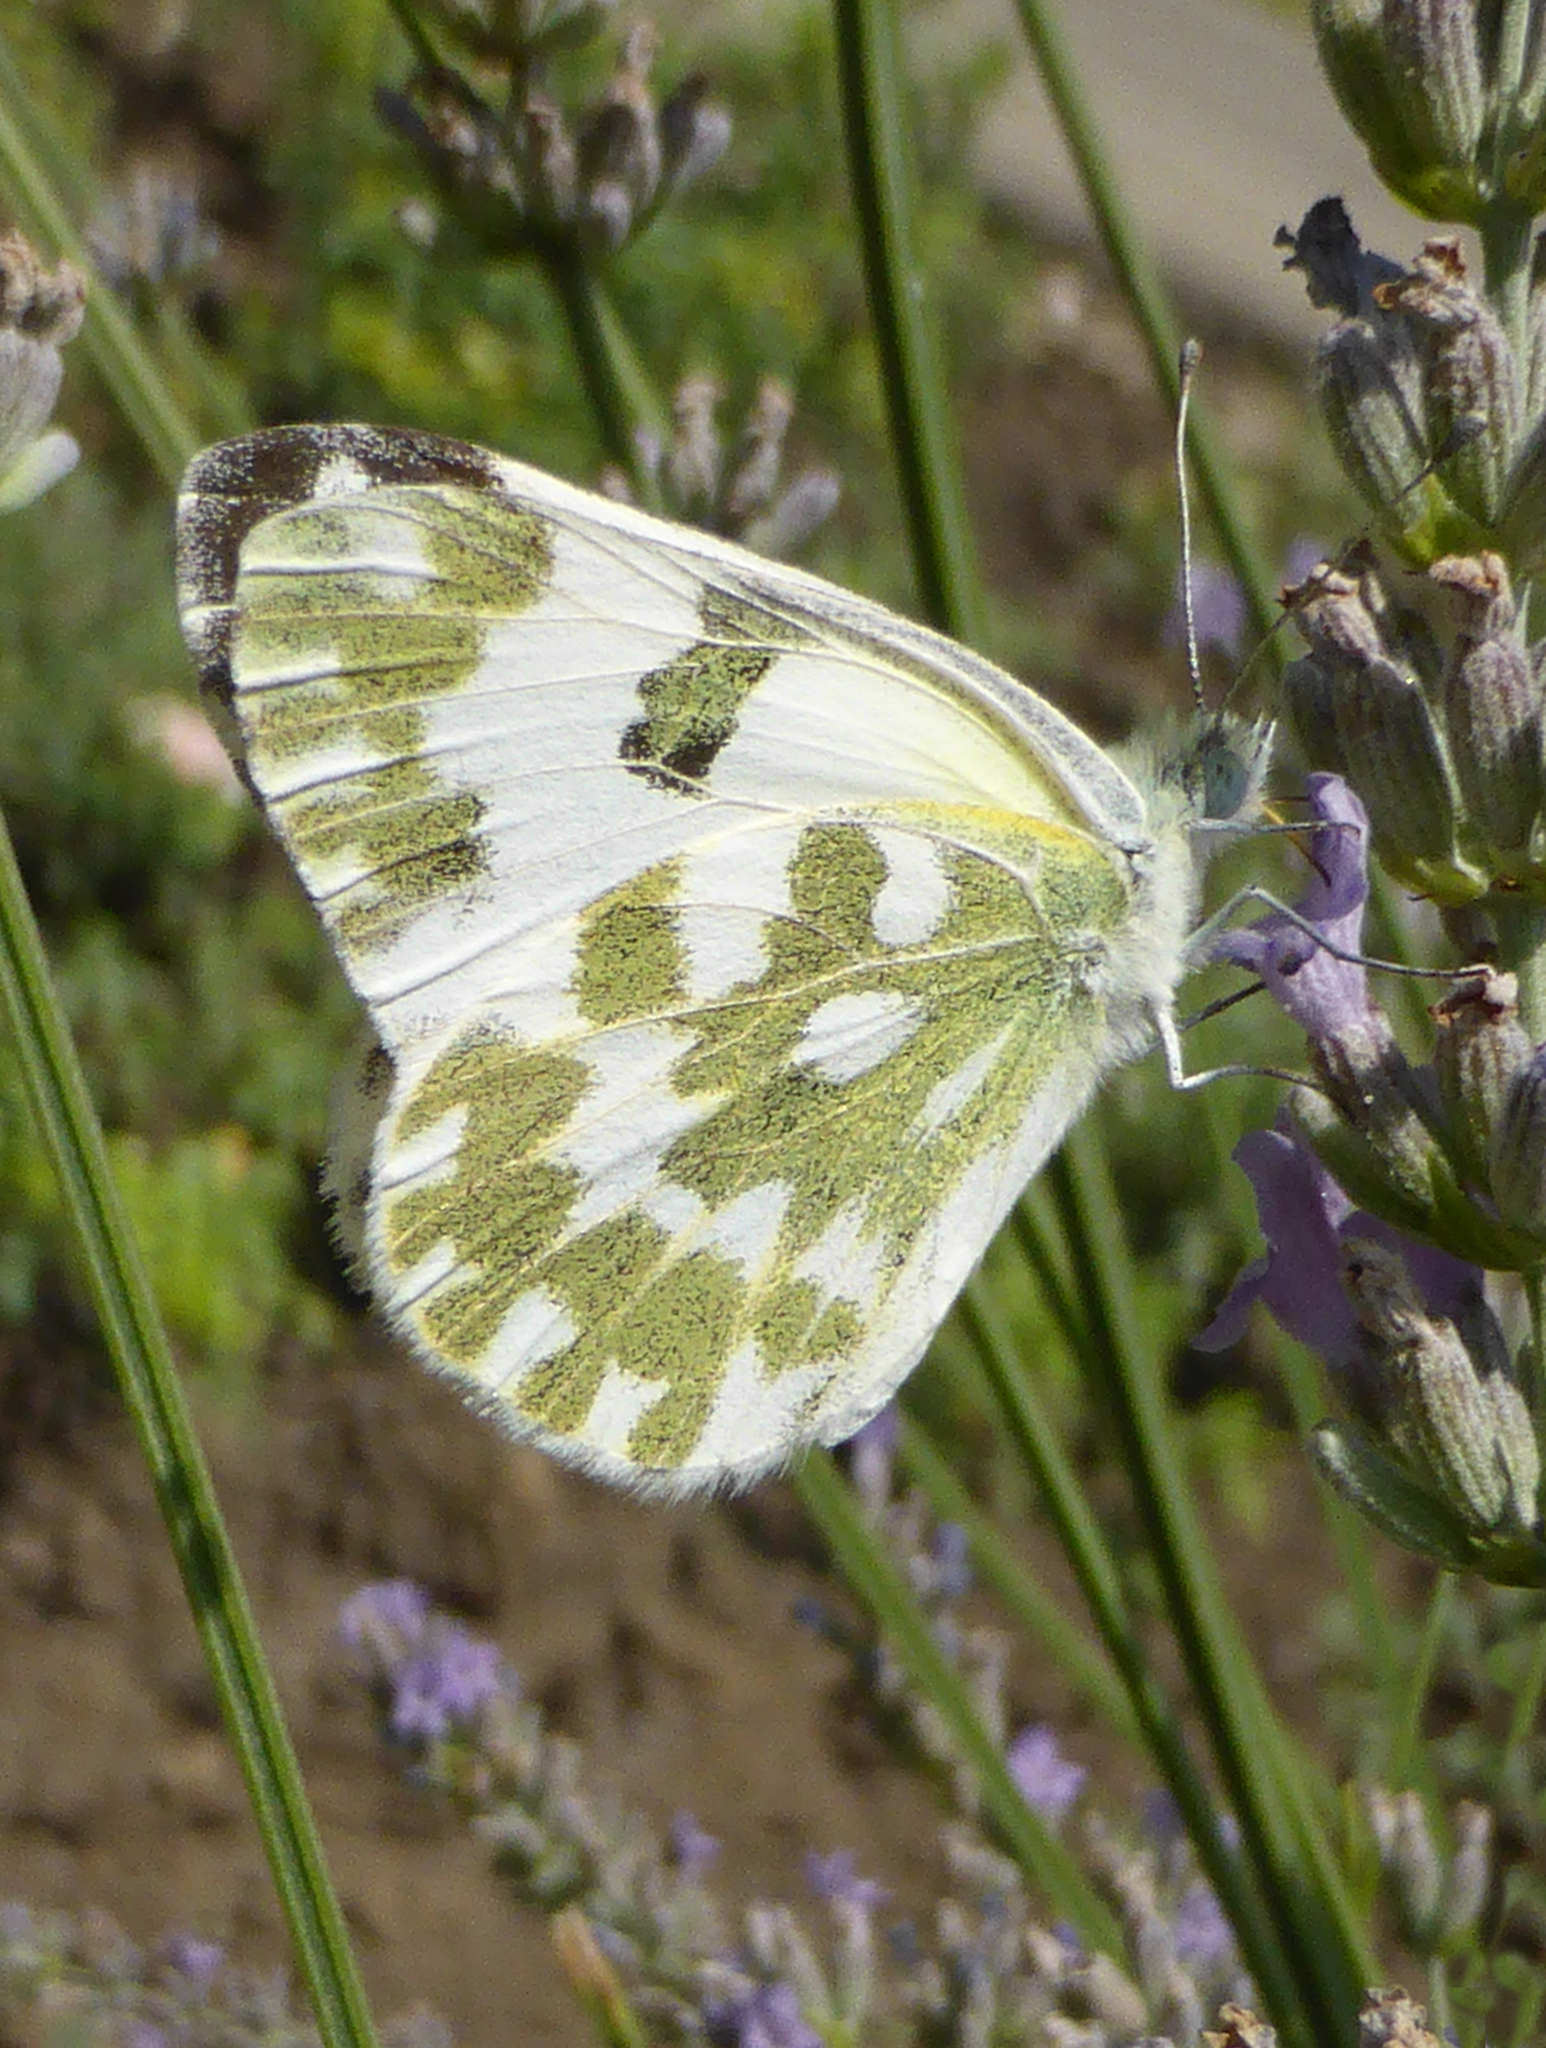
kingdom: Animalia
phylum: Arthropoda
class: Insecta
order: Lepidoptera
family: Pieridae
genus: Pontia
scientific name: Pontia edusa
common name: Eastern bath white
